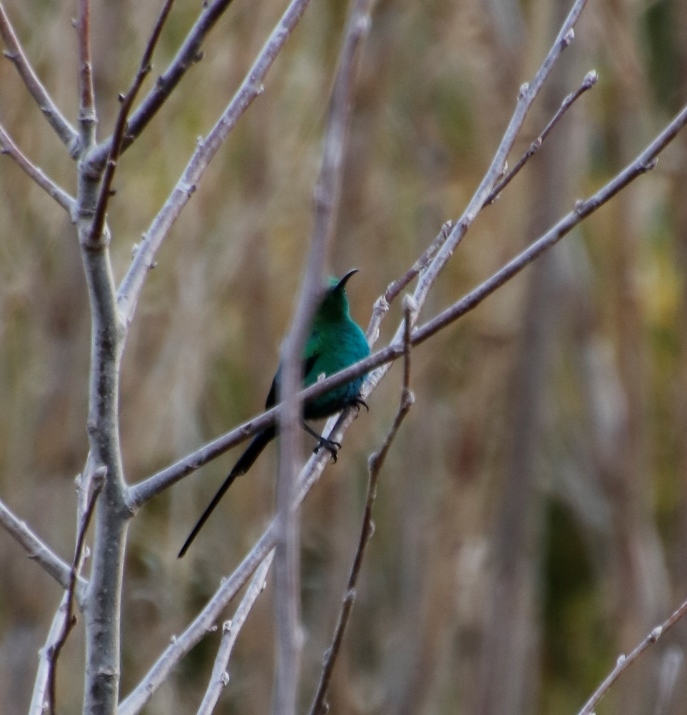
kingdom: Animalia
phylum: Chordata
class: Aves
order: Passeriformes
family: Nectariniidae
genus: Nectarinia
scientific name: Nectarinia famosa
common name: Malachite sunbird
